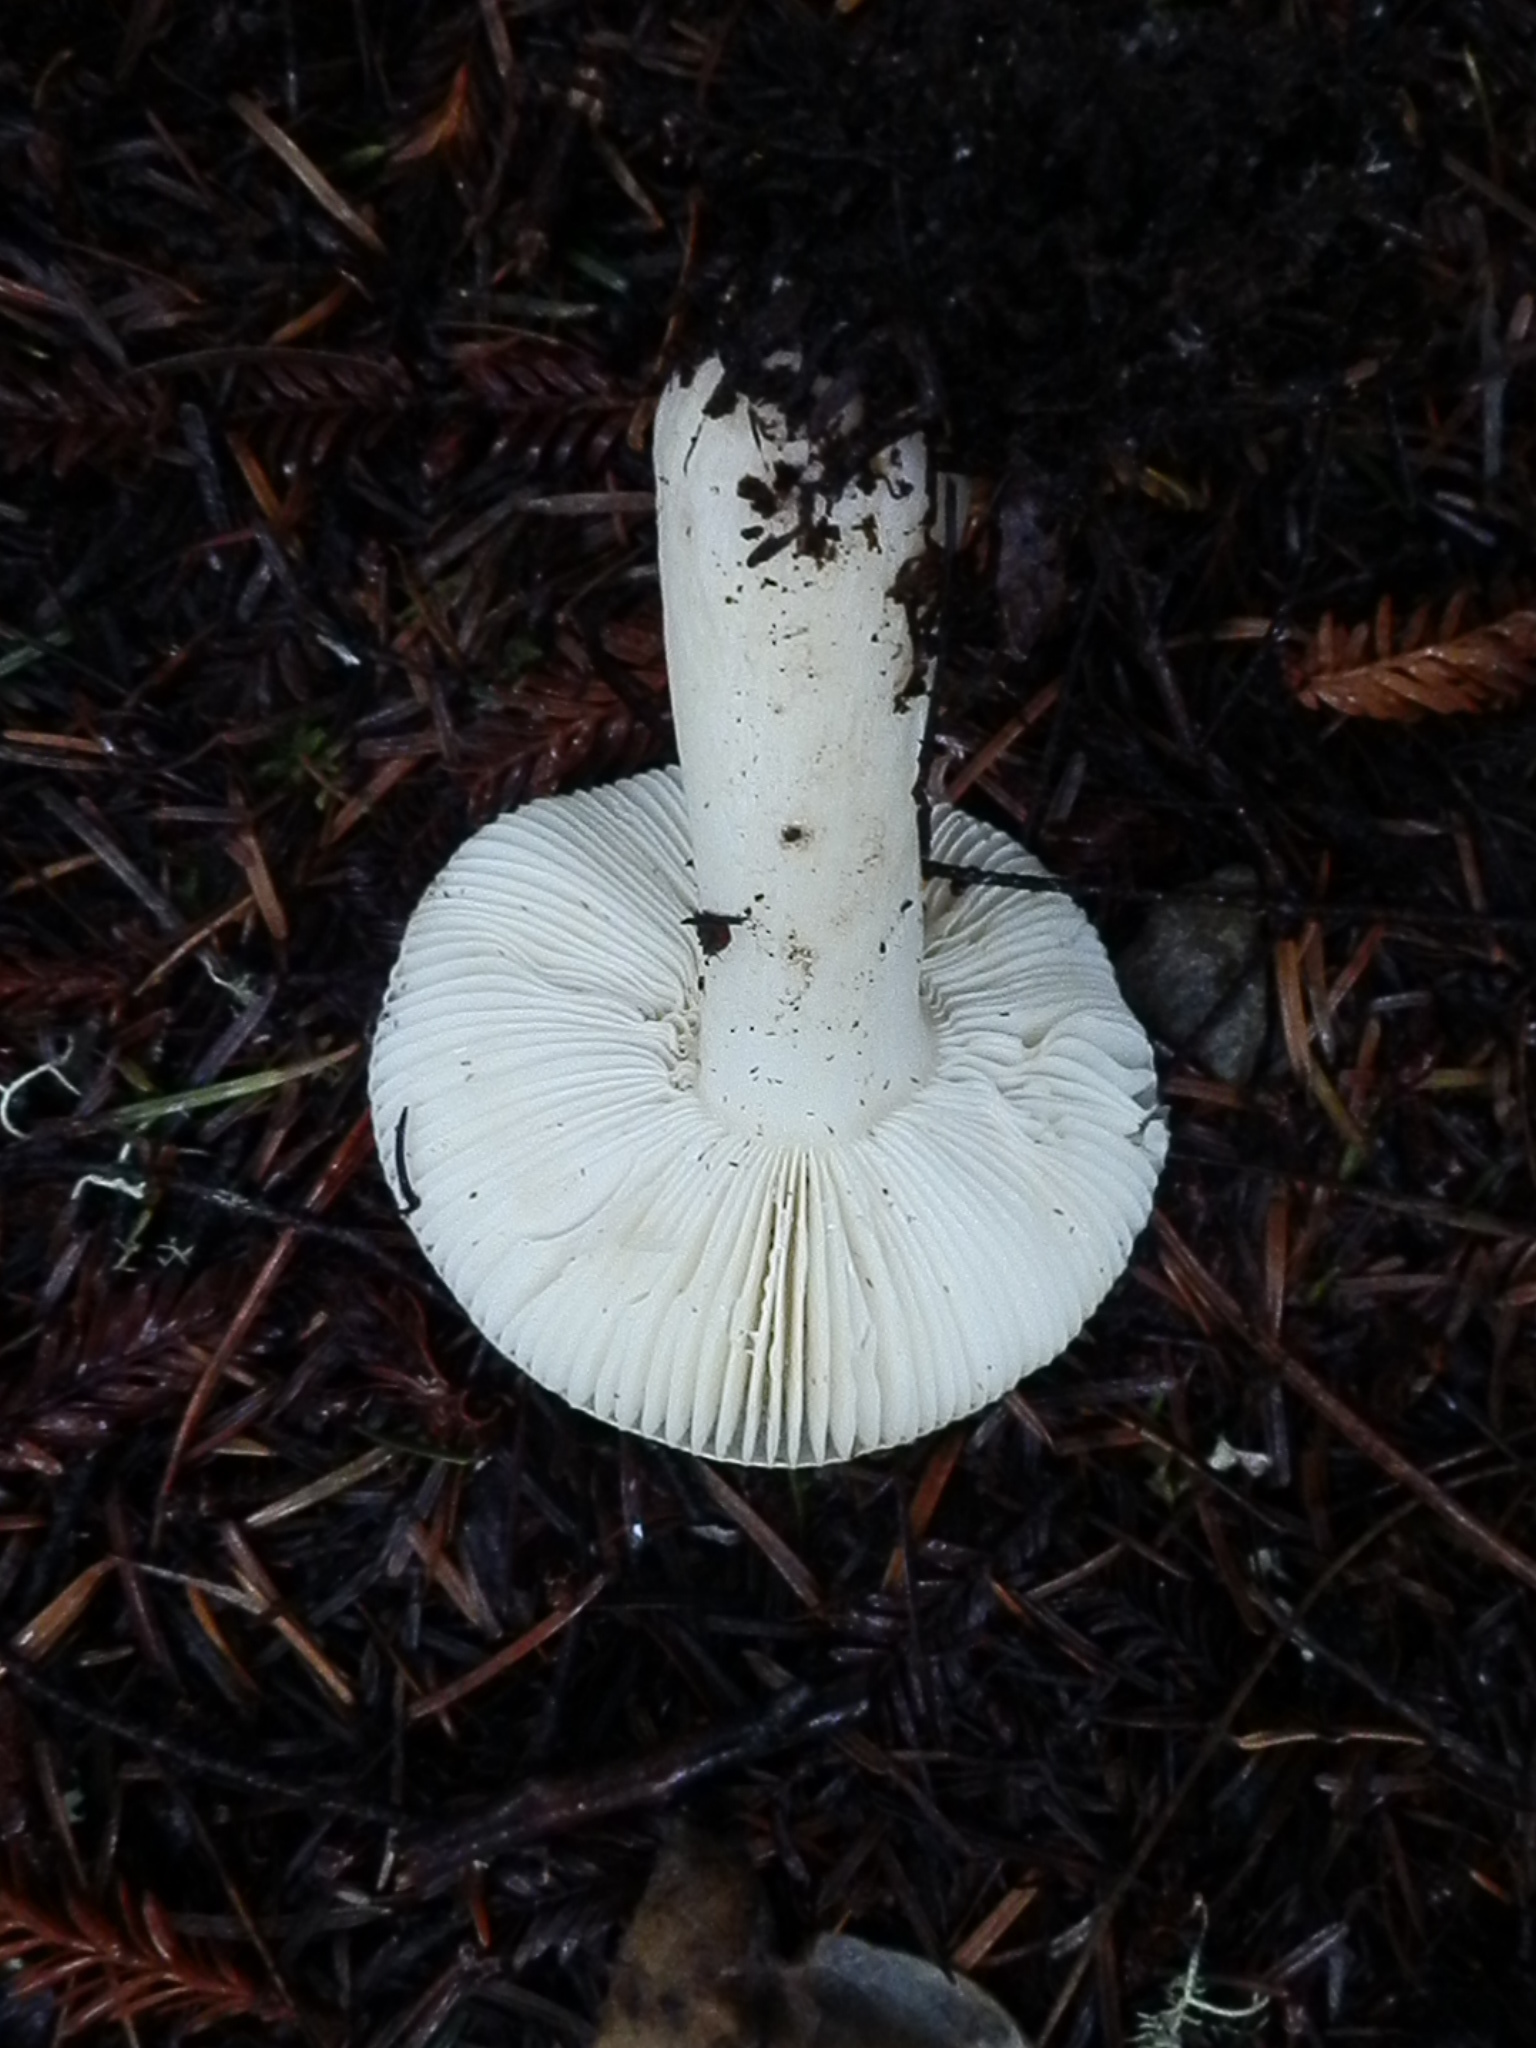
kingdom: Fungi
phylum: Basidiomycota
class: Agaricomycetes
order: Russulales
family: Russulaceae
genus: Russula
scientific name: Russula cremoricolor
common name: Winter russula
